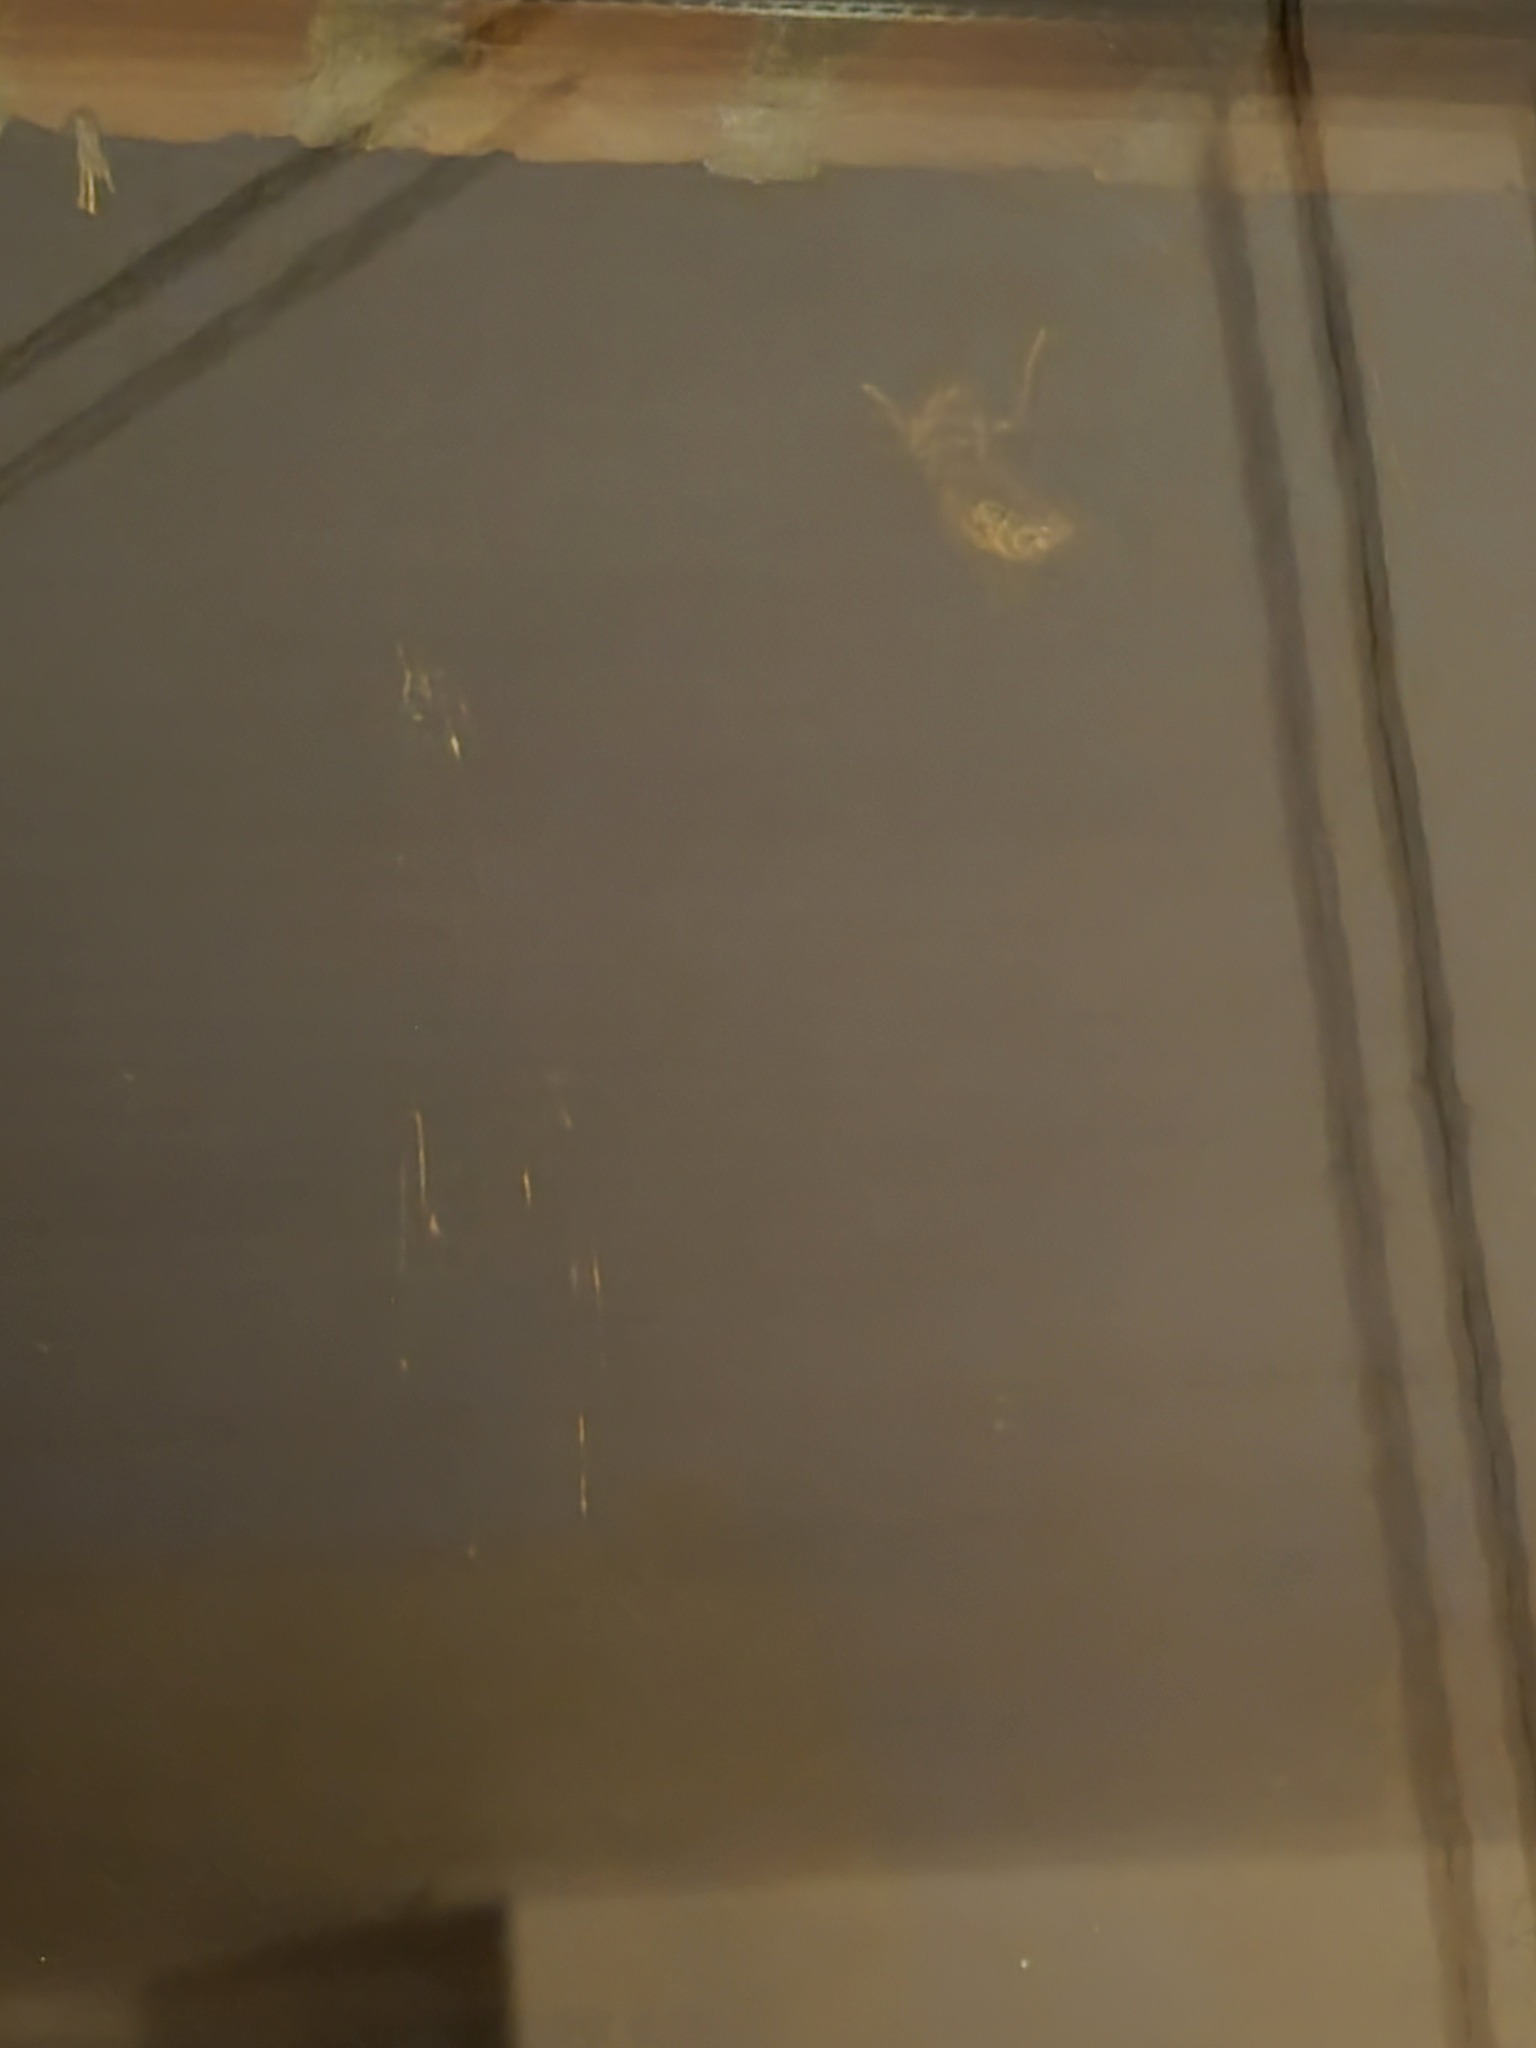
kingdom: Animalia
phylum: Arthropoda
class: Insecta
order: Hymenoptera
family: Vespidae
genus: Vespa
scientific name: Vespa crabro
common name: Hornet
